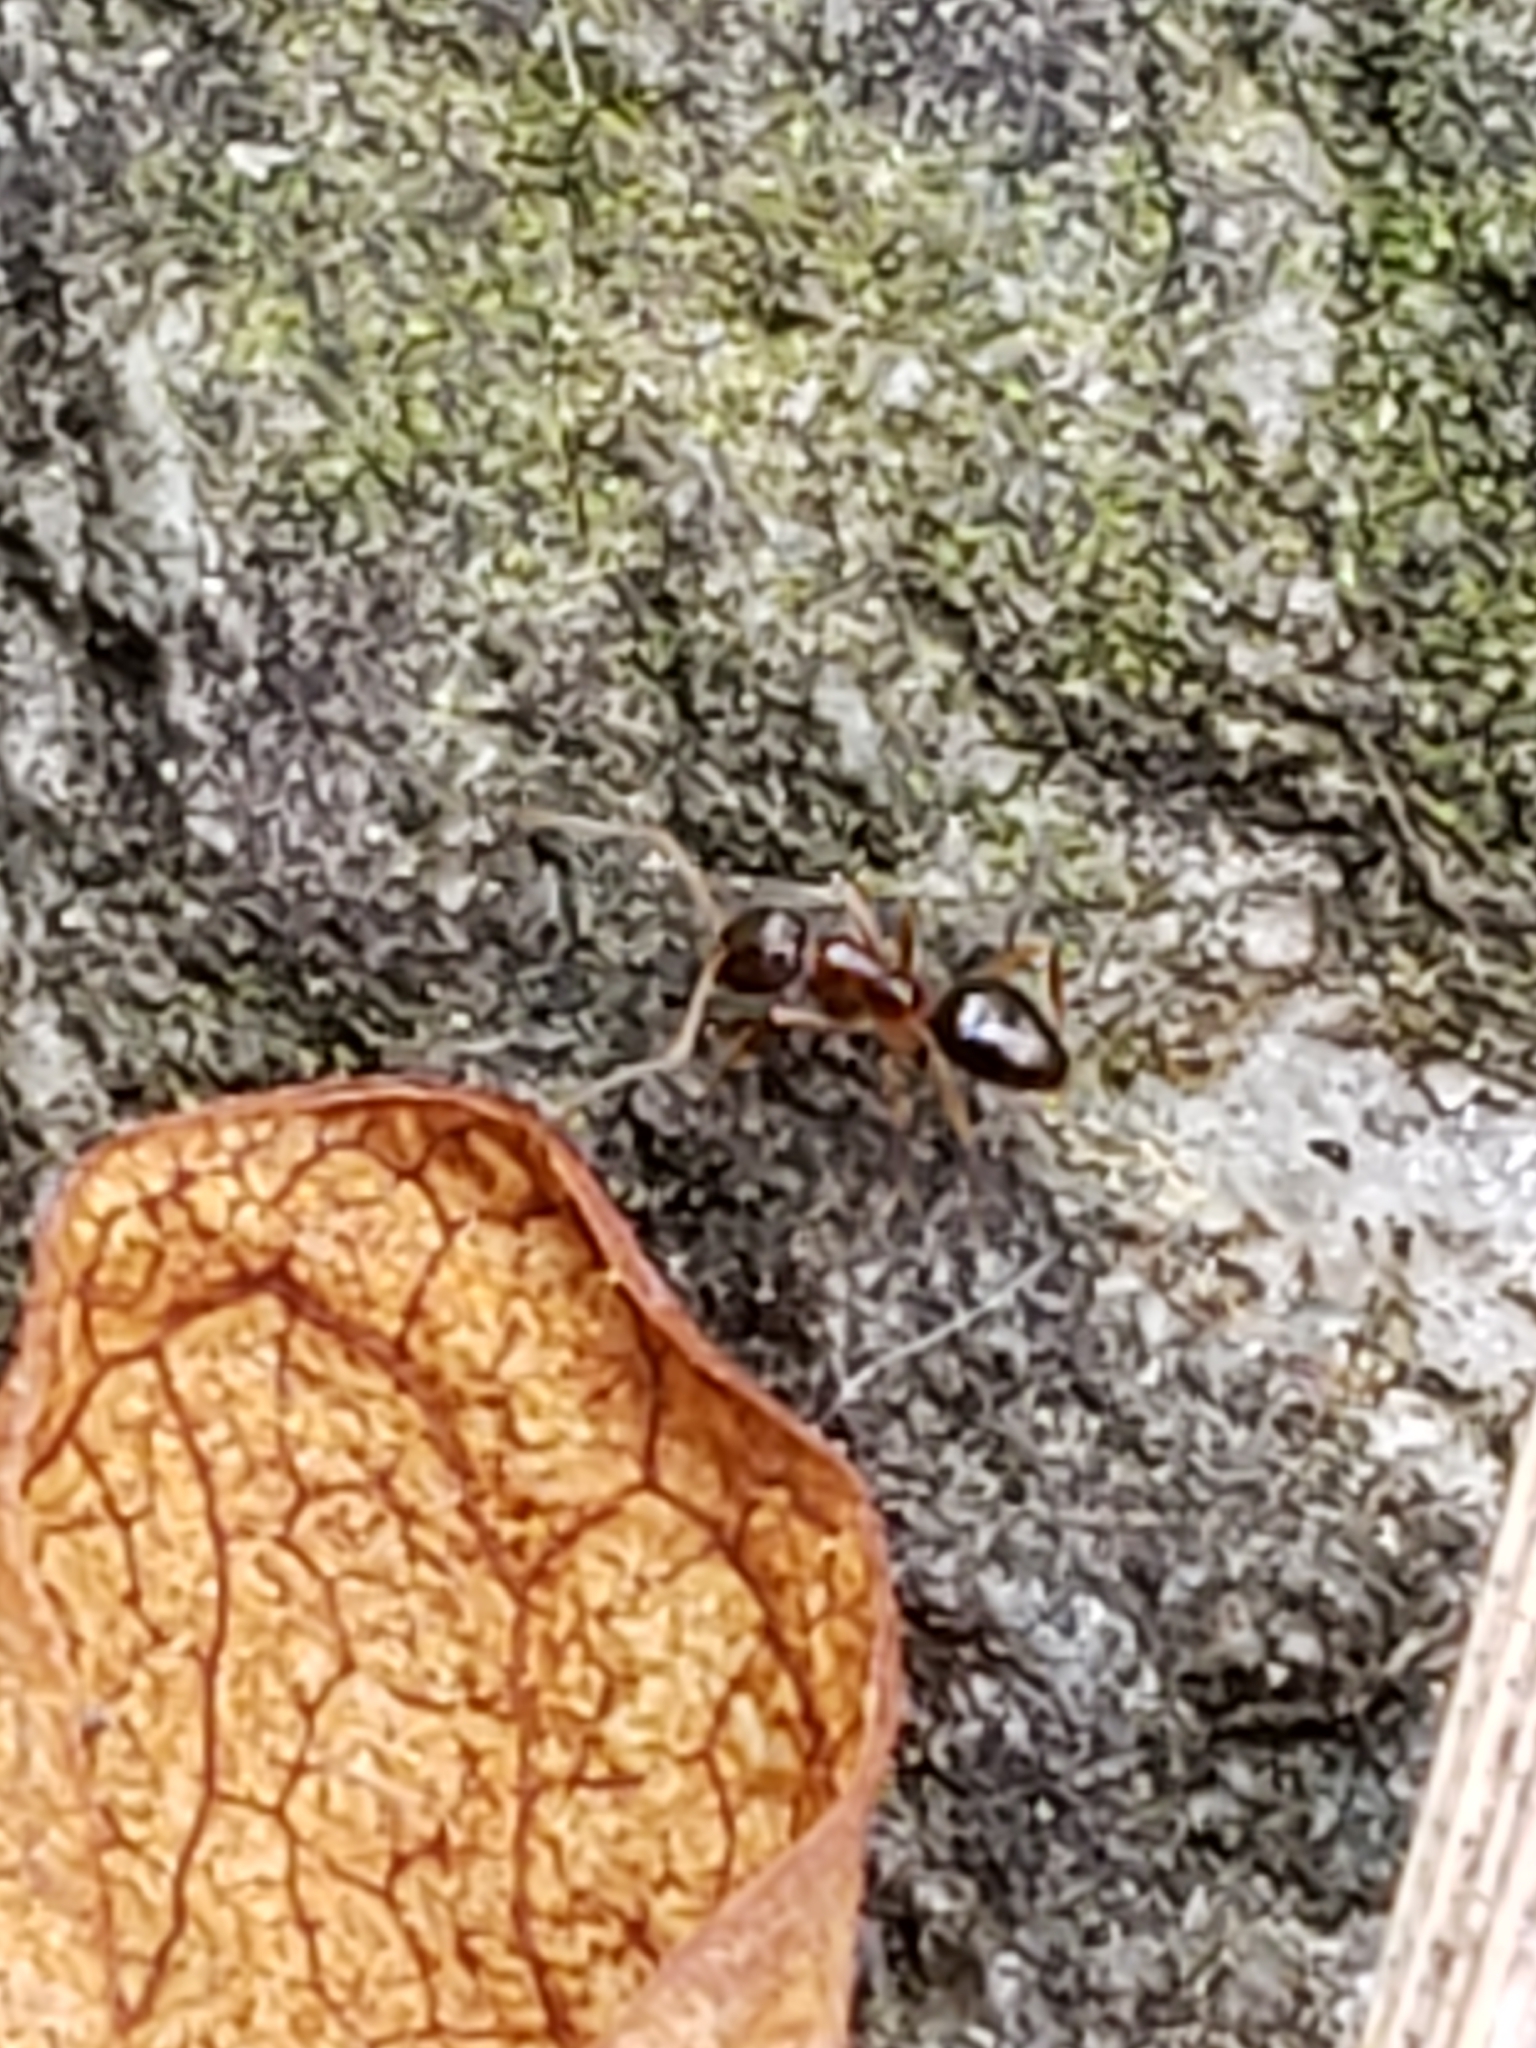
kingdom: Animalia
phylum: Arthropoda
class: Insecta
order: Hymenoptera
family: Formicidae
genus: Prenolepis
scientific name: Prenolepis imparis
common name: Small honey ant
